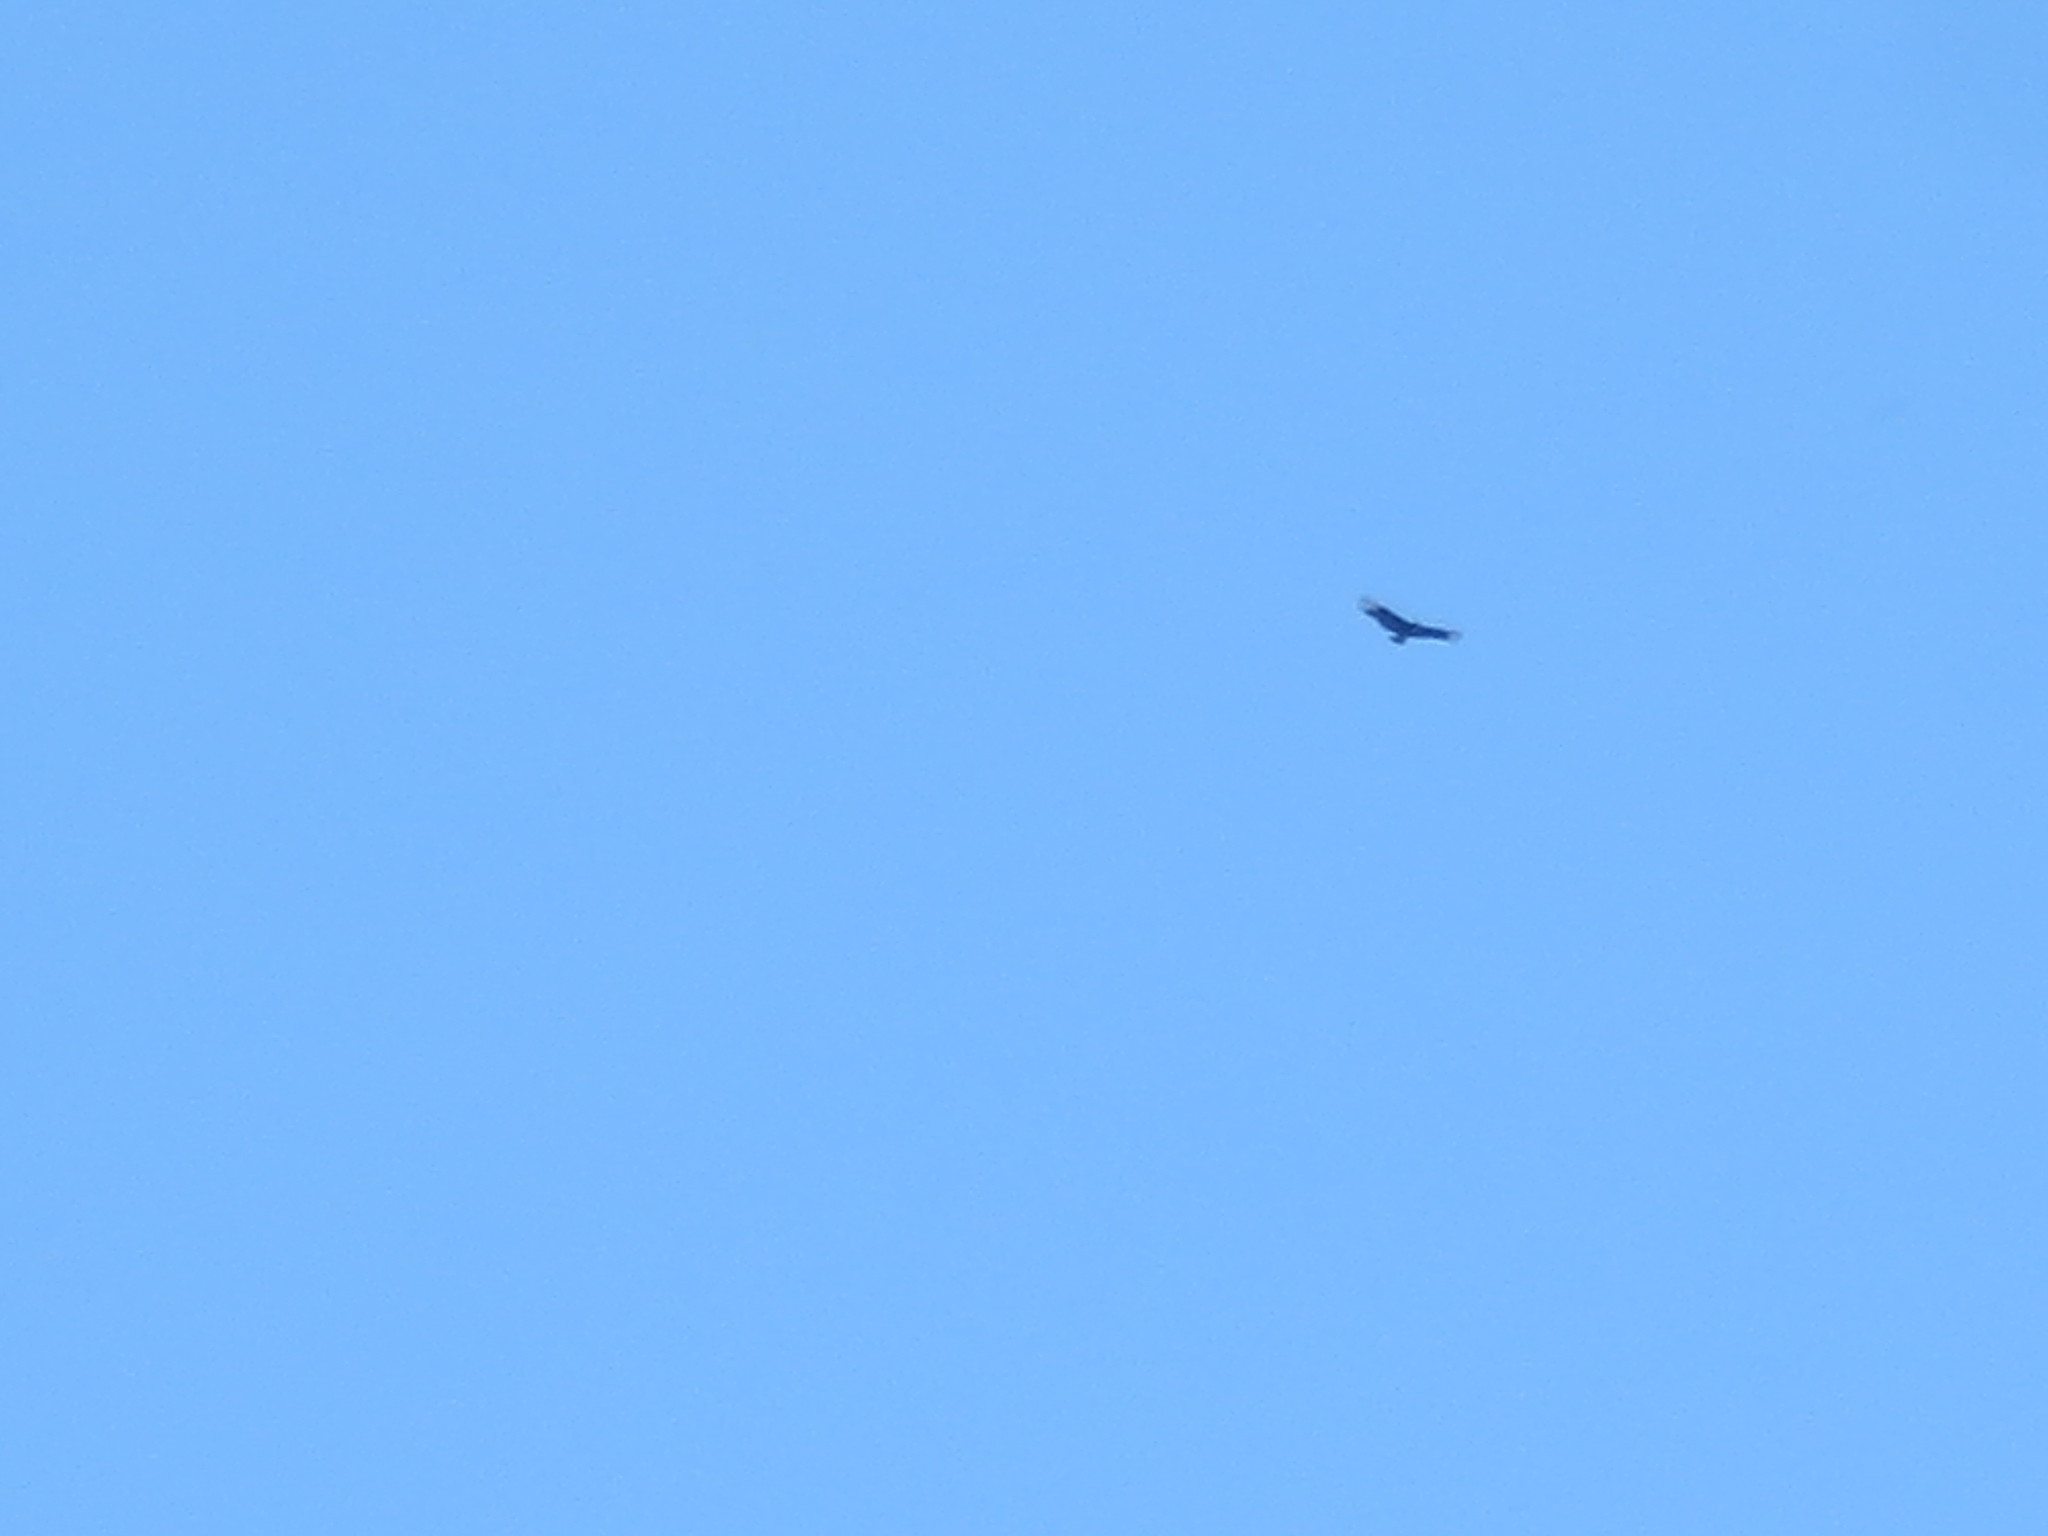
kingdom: Animalia
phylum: Chordata
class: Aves
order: Accipitriformes
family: Cathartidae
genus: Coragyps
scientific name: Coragyps atratus
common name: Black vulture
